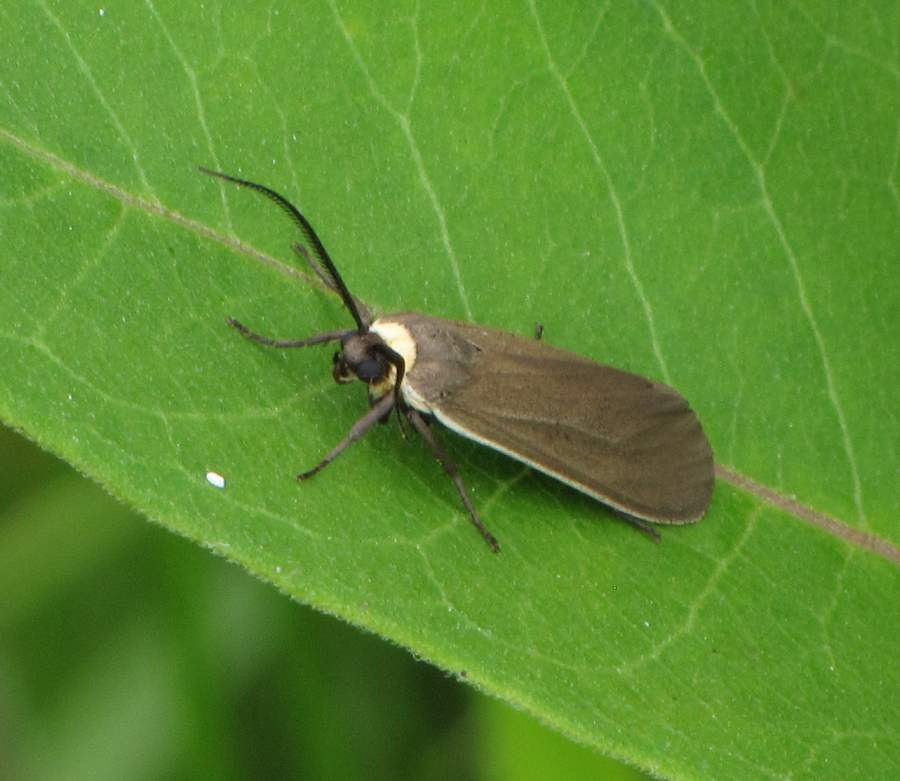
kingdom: Animalia
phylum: Arthropoda
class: Insecta
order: Lepidoptera
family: Erebidae
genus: Cisseps
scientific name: Cisseps fulvicollis
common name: Yellow-collared scape moth
